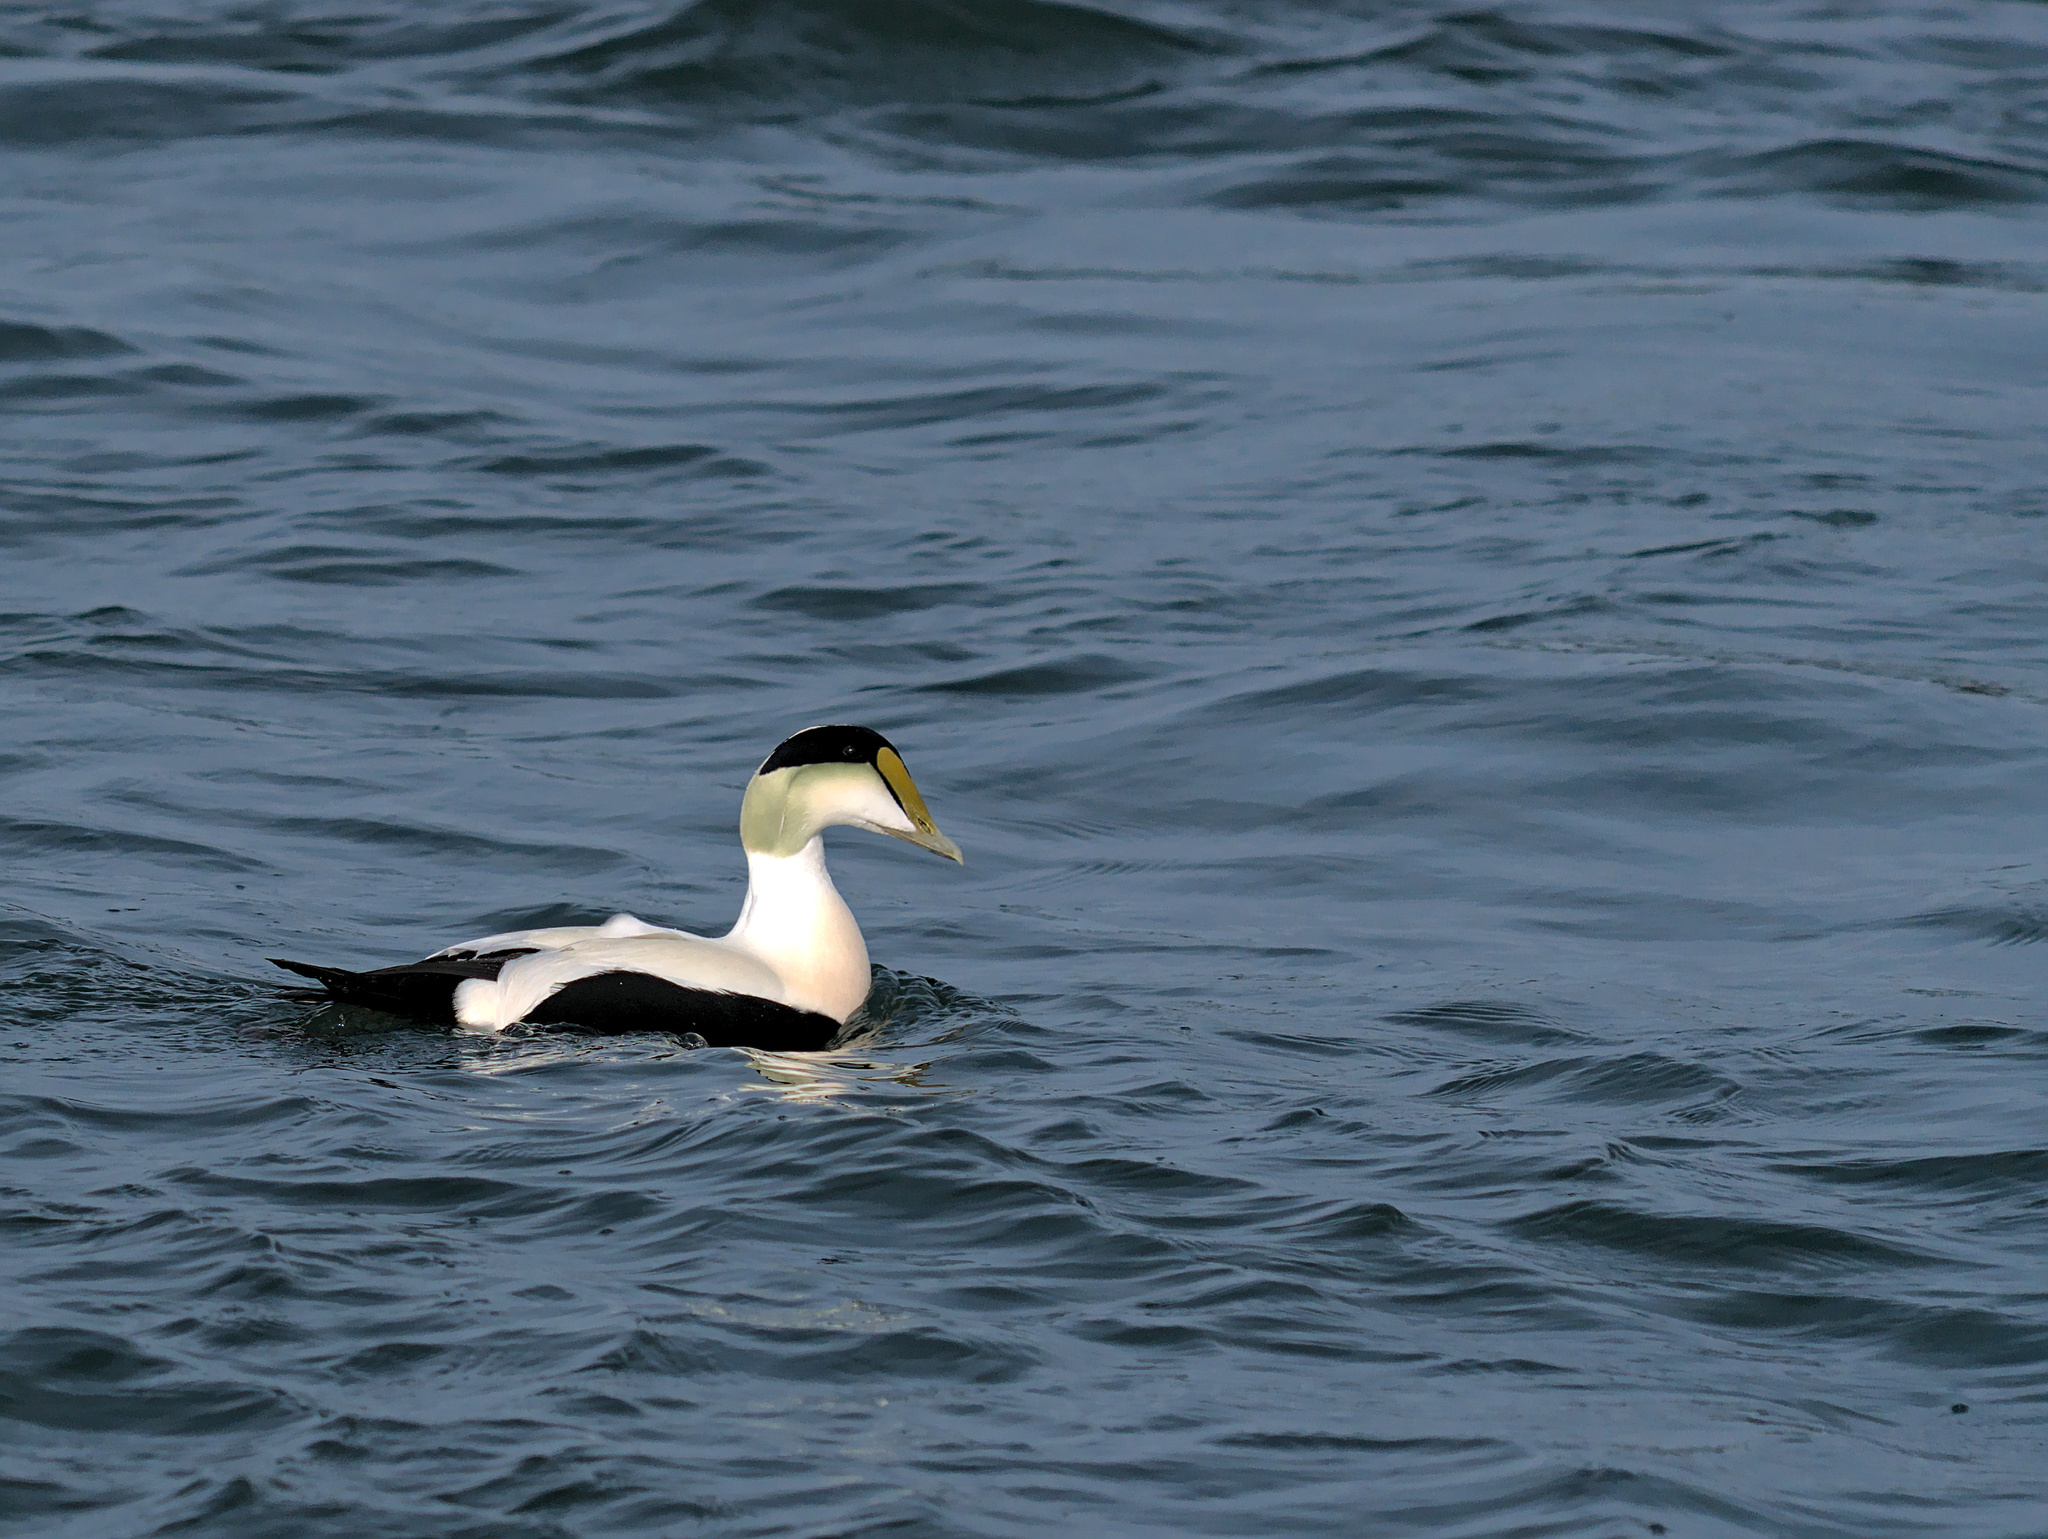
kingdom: Animalia
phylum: Chordata
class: Aves
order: Anseriformes
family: Anatidae
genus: Somateria
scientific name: Somateria mollissima
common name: Common eider
